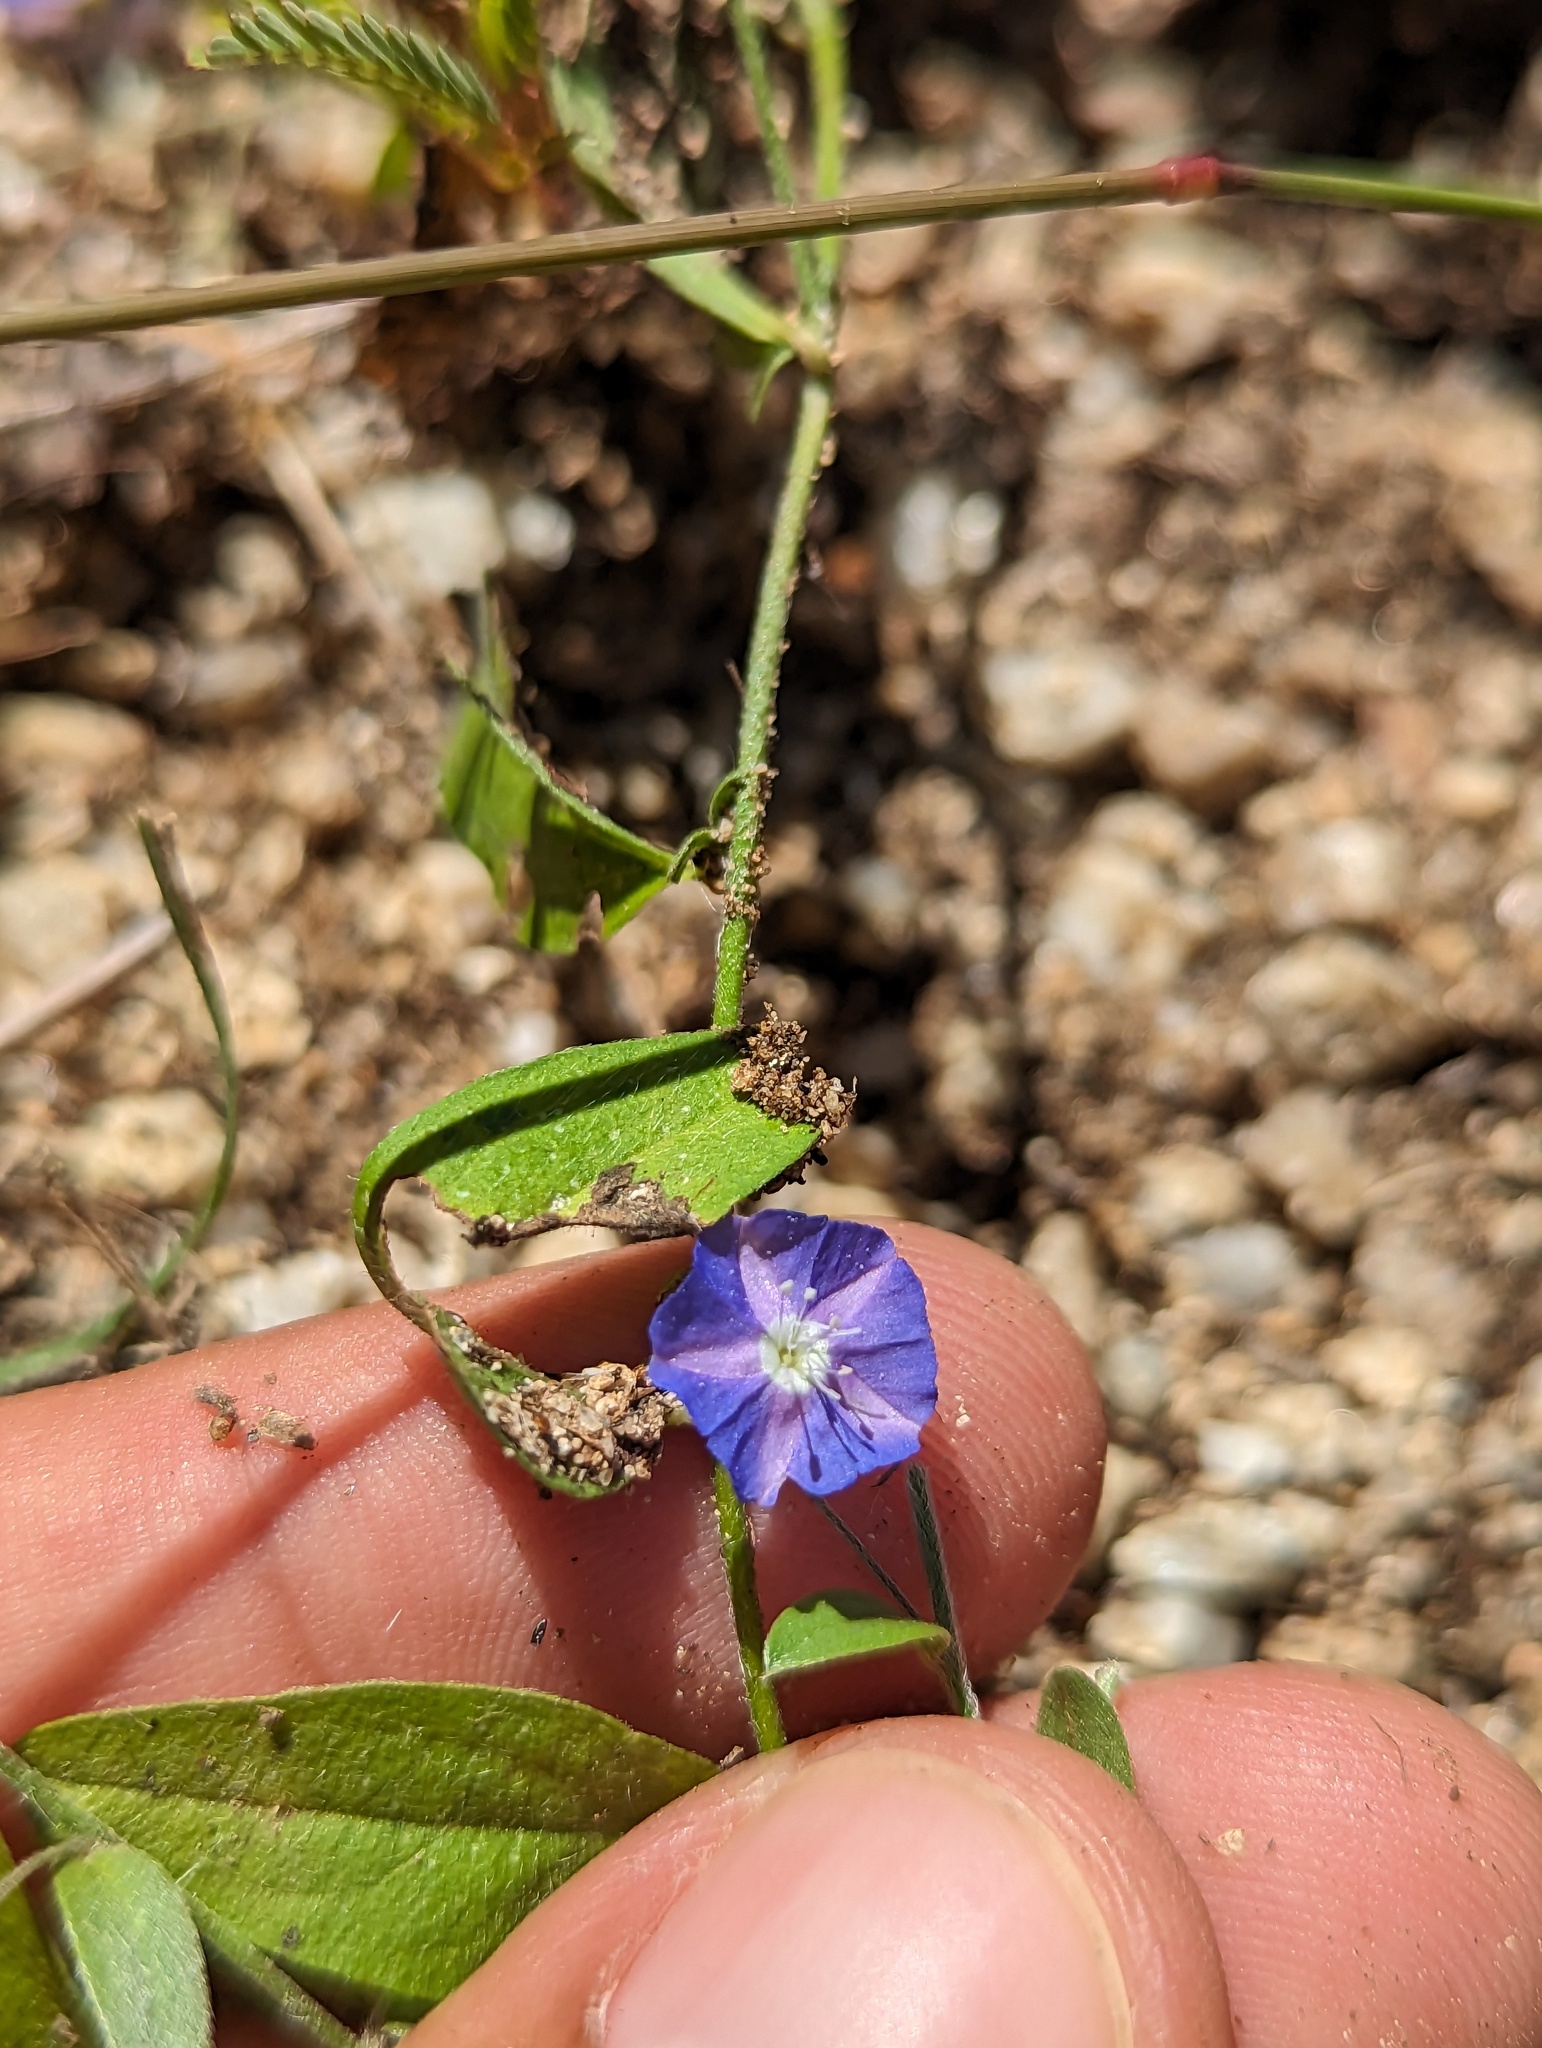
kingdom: Plantae
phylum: Tracheophyta
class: Magnoliopsida
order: Solanales
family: Convolvulaceae
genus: Evolvulus
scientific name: Evolvulus alsinoides
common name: Slender dwarf morning-glory
